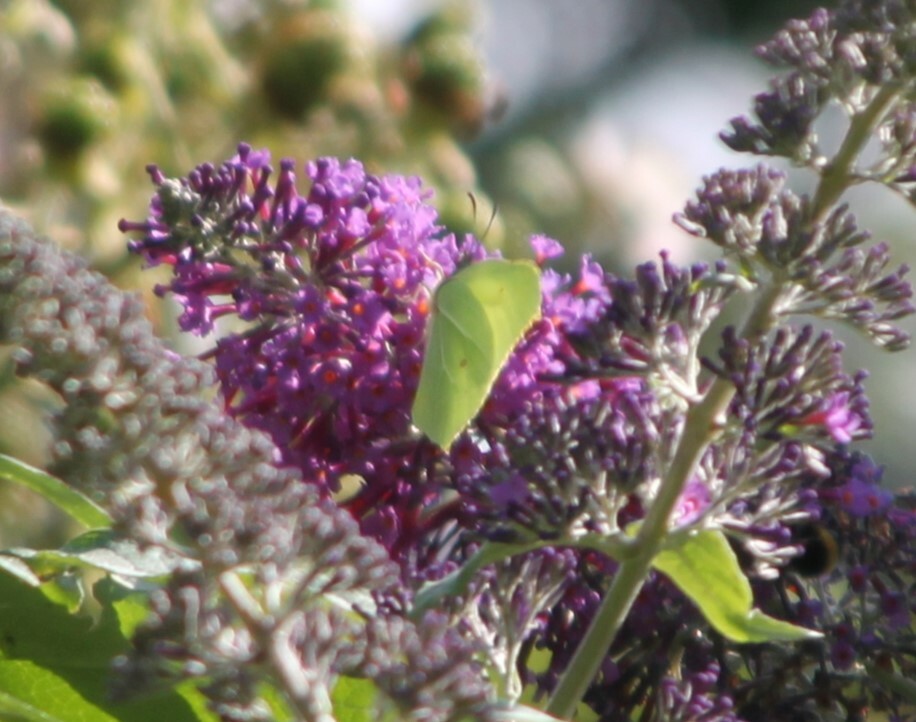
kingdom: Animalia
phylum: Arthropoda
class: Insecta
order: Lepidoptera
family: Pieridae
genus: Gonepteryx
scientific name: Gonepteryx rhamni
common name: Brimstone
